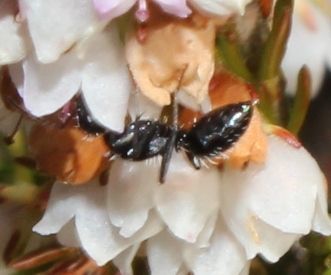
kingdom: Animalia
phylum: Arthropoda
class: Insecta
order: Hymenoptera
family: Formicidae
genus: Camponotus
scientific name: Camponotus niveosetosus
